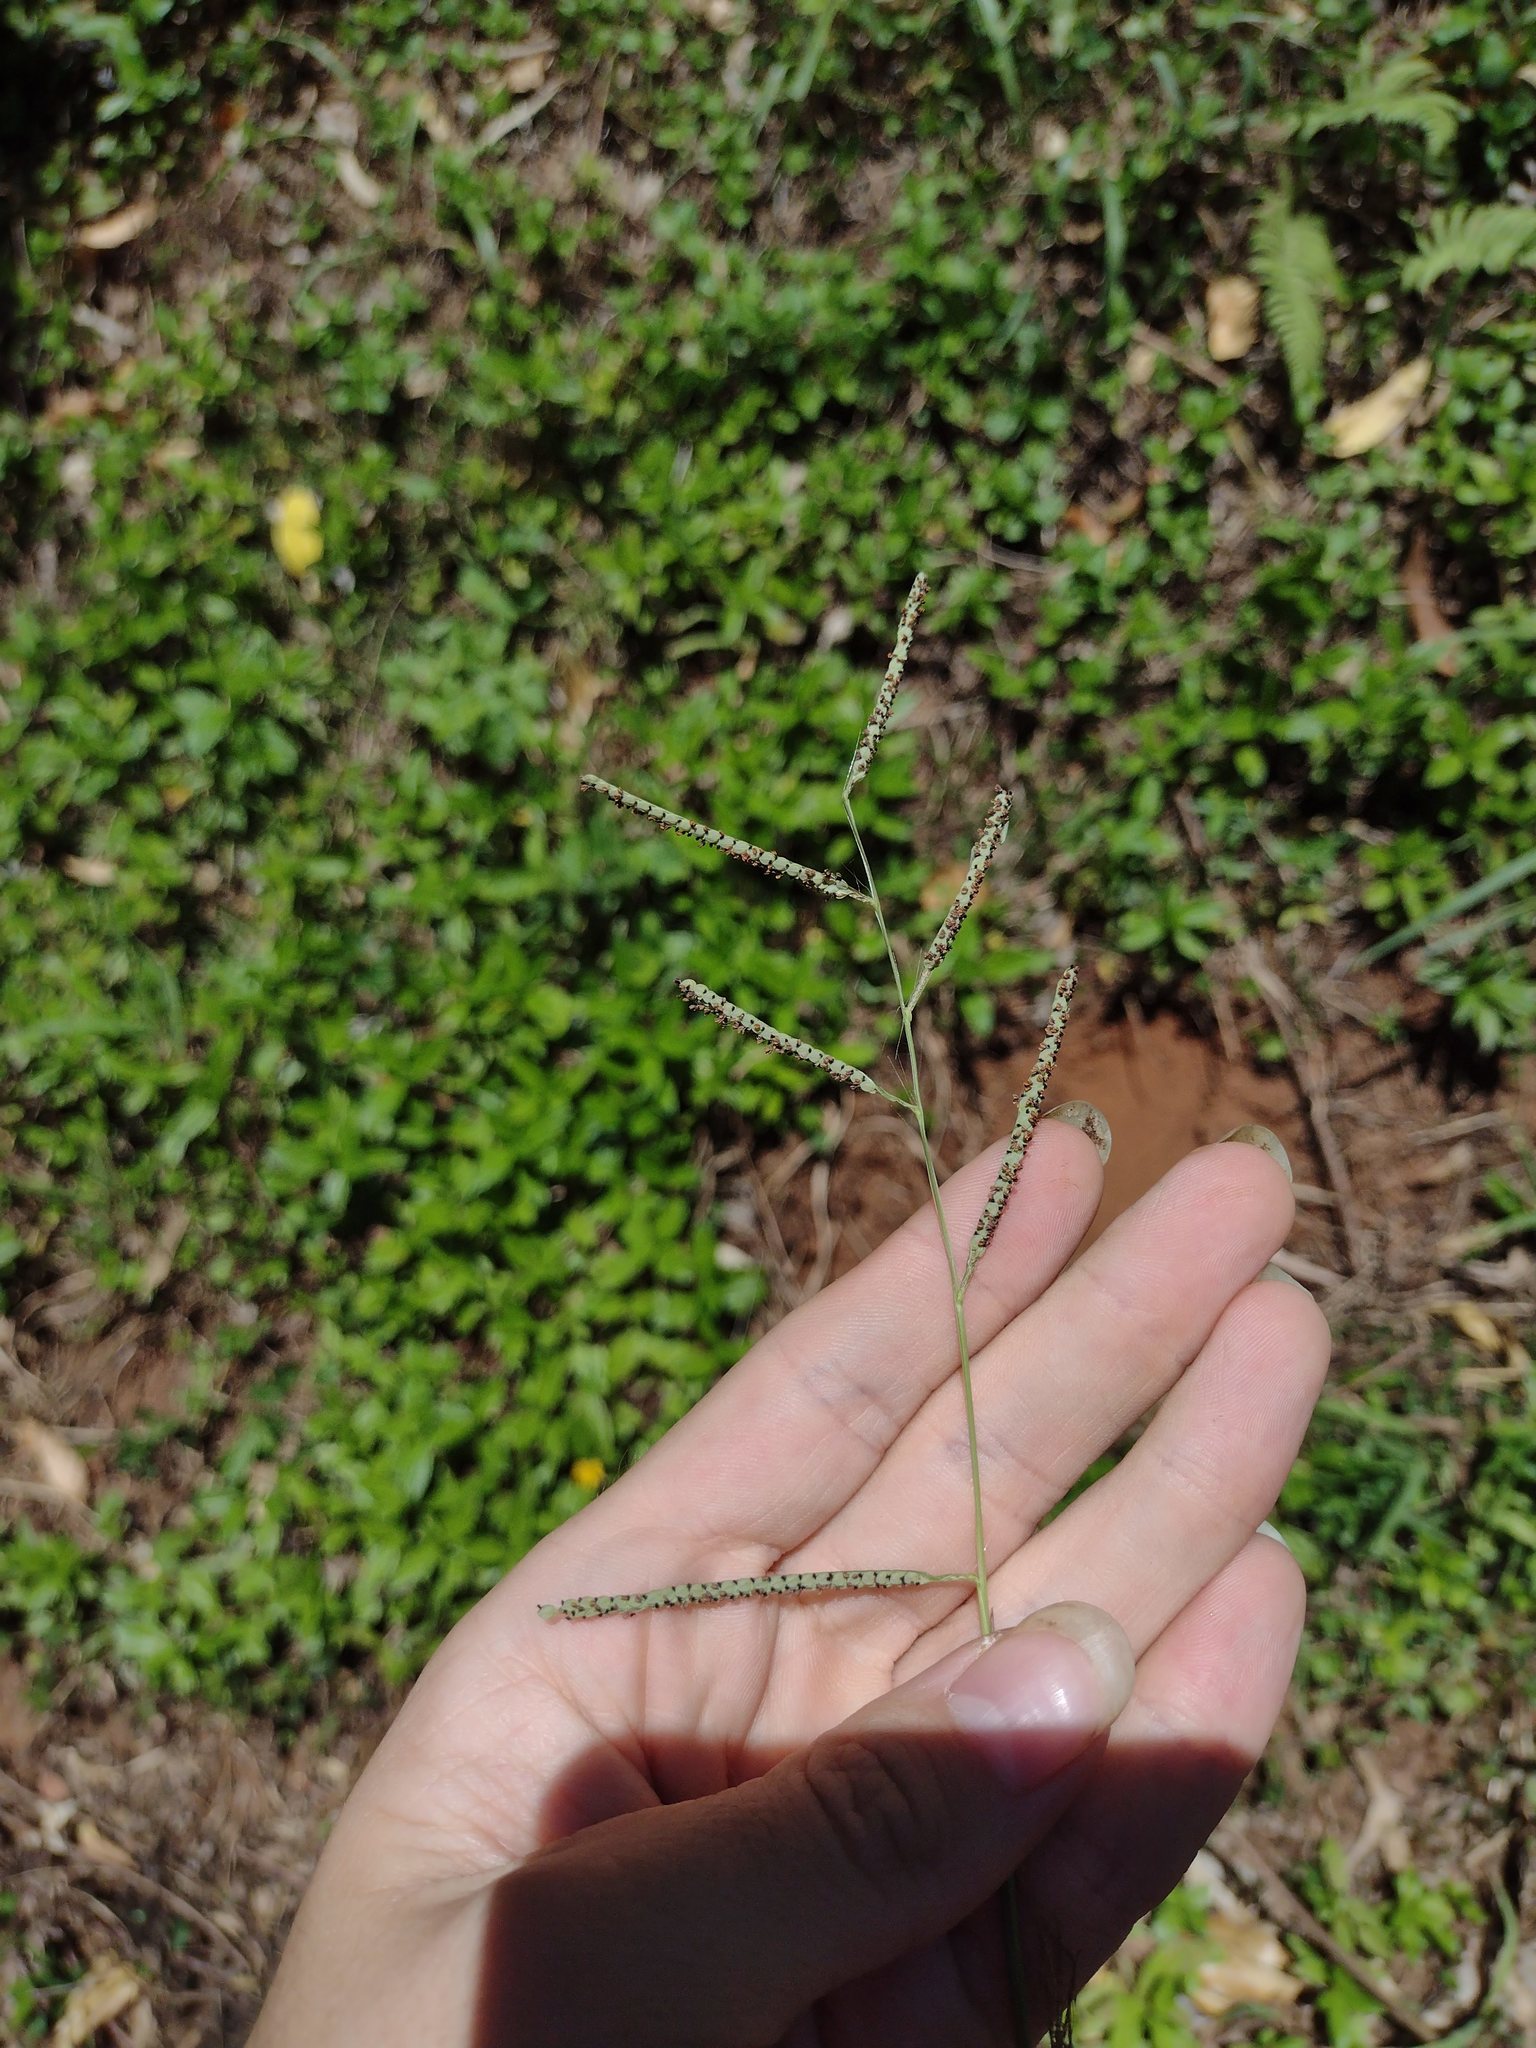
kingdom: Plantae
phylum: Tracheophyta
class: Liliopsida
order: Poales
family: Poaceae
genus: Paspalum
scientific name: Paspalum scrobiculatum
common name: Kodo millet
